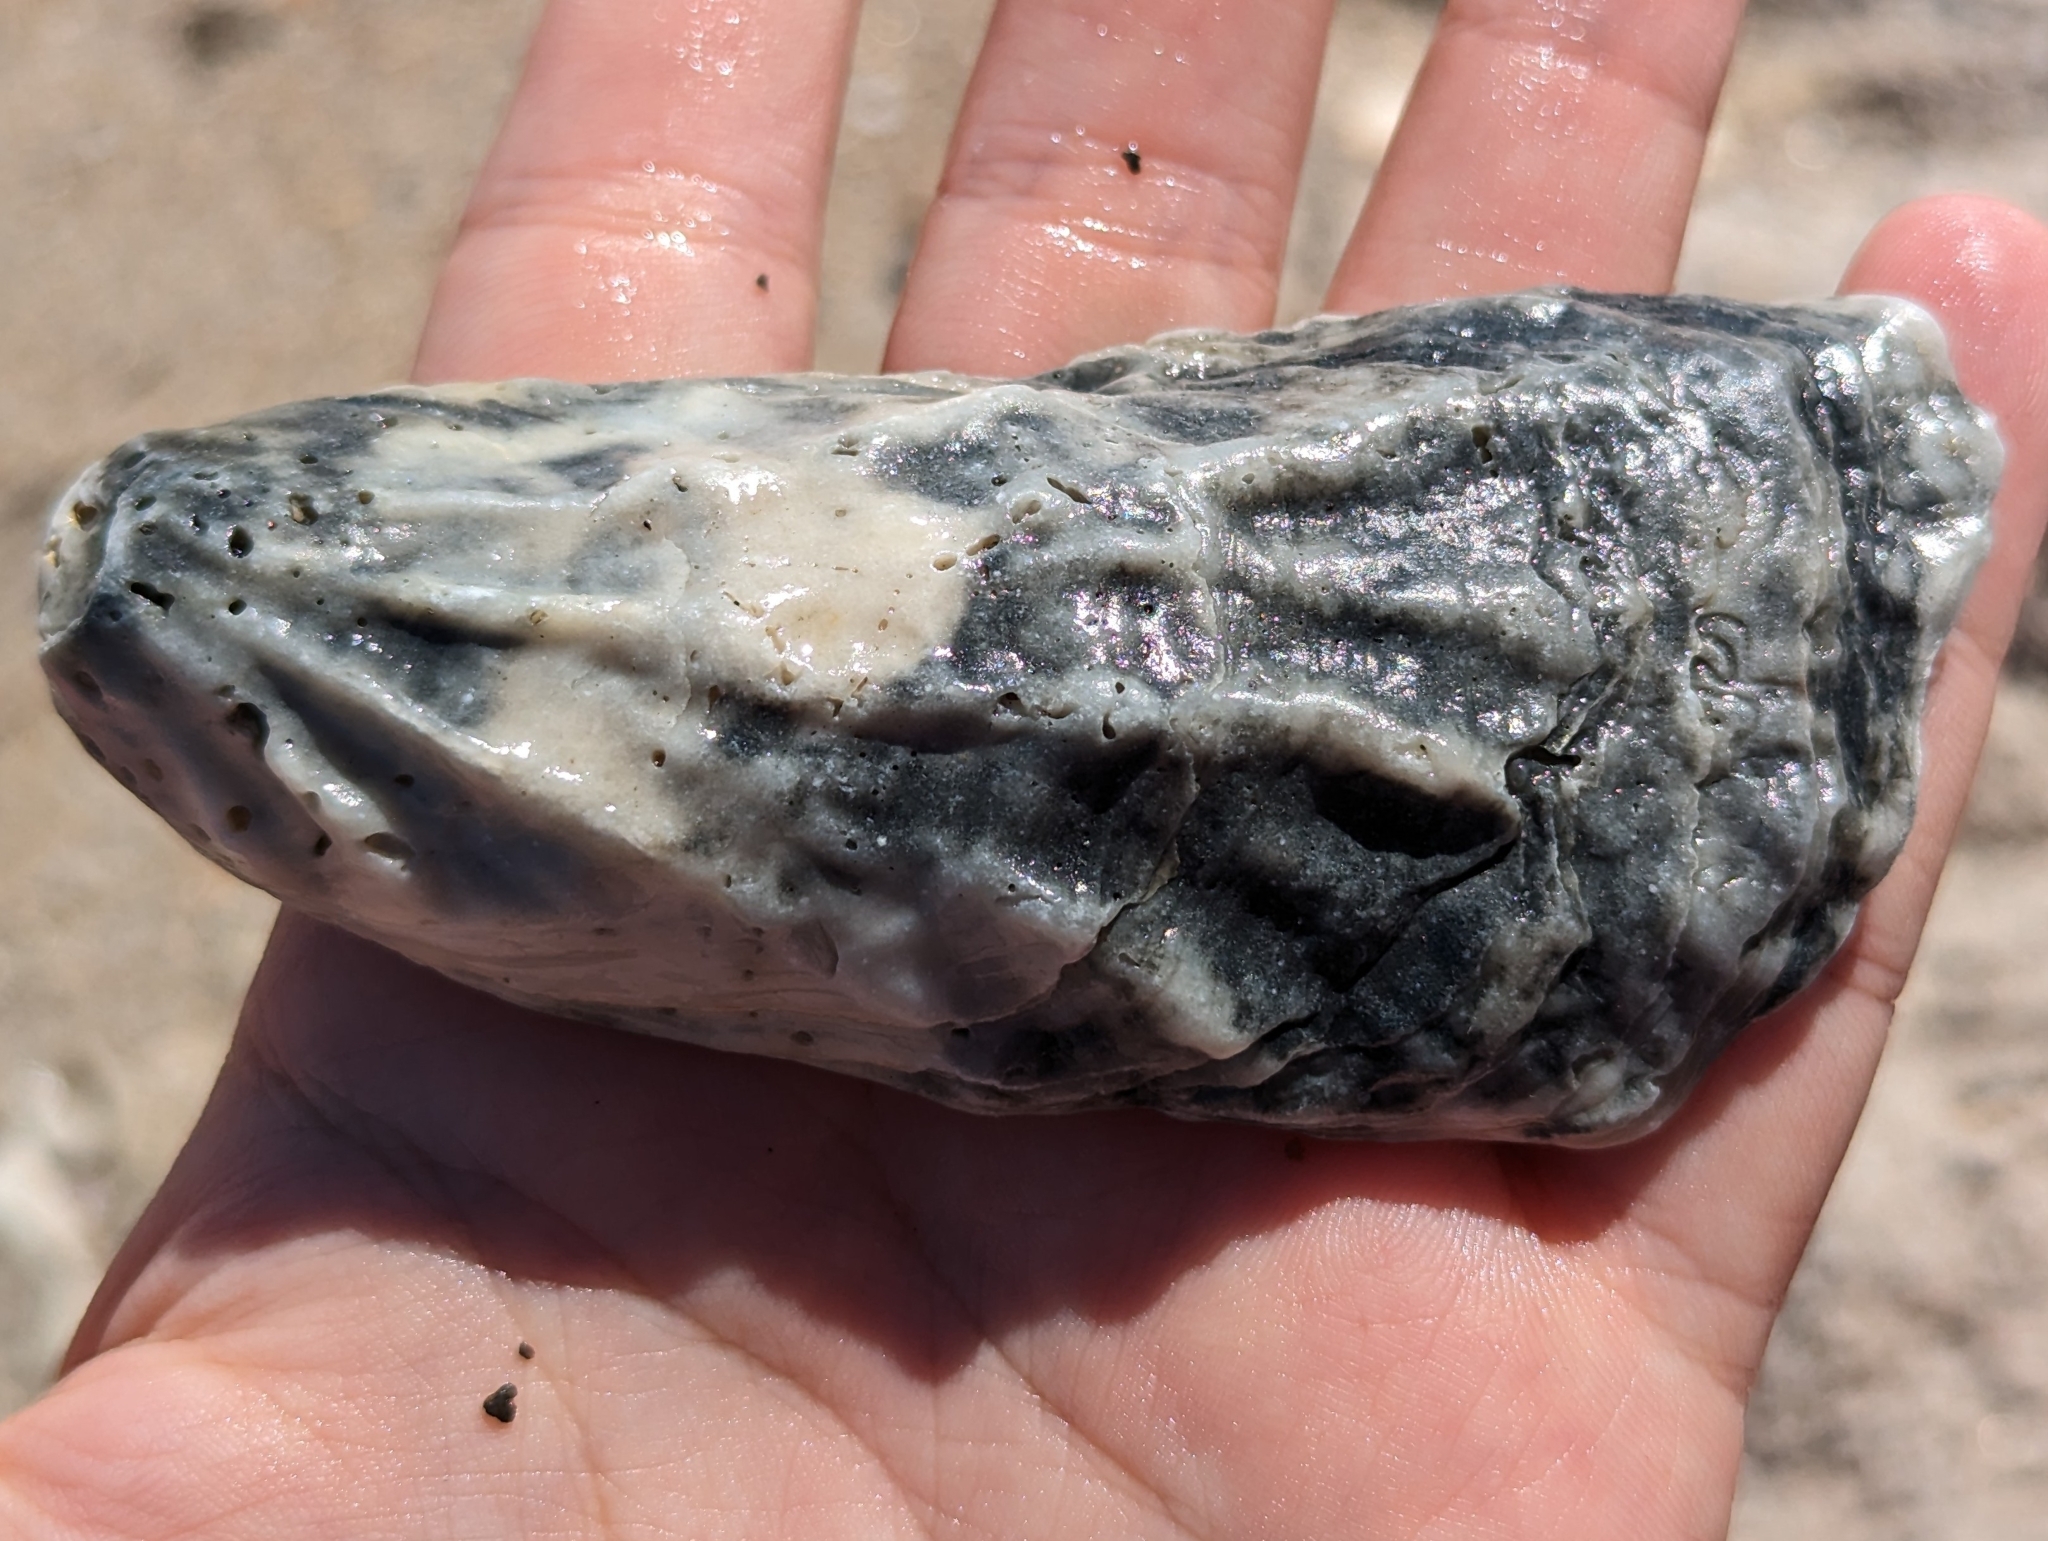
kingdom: Animalia
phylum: Mollusca
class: Bivalvia
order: Ostreida
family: Ostreidae
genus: Crassostrea
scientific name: Crassostrea virginica
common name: American oyster
